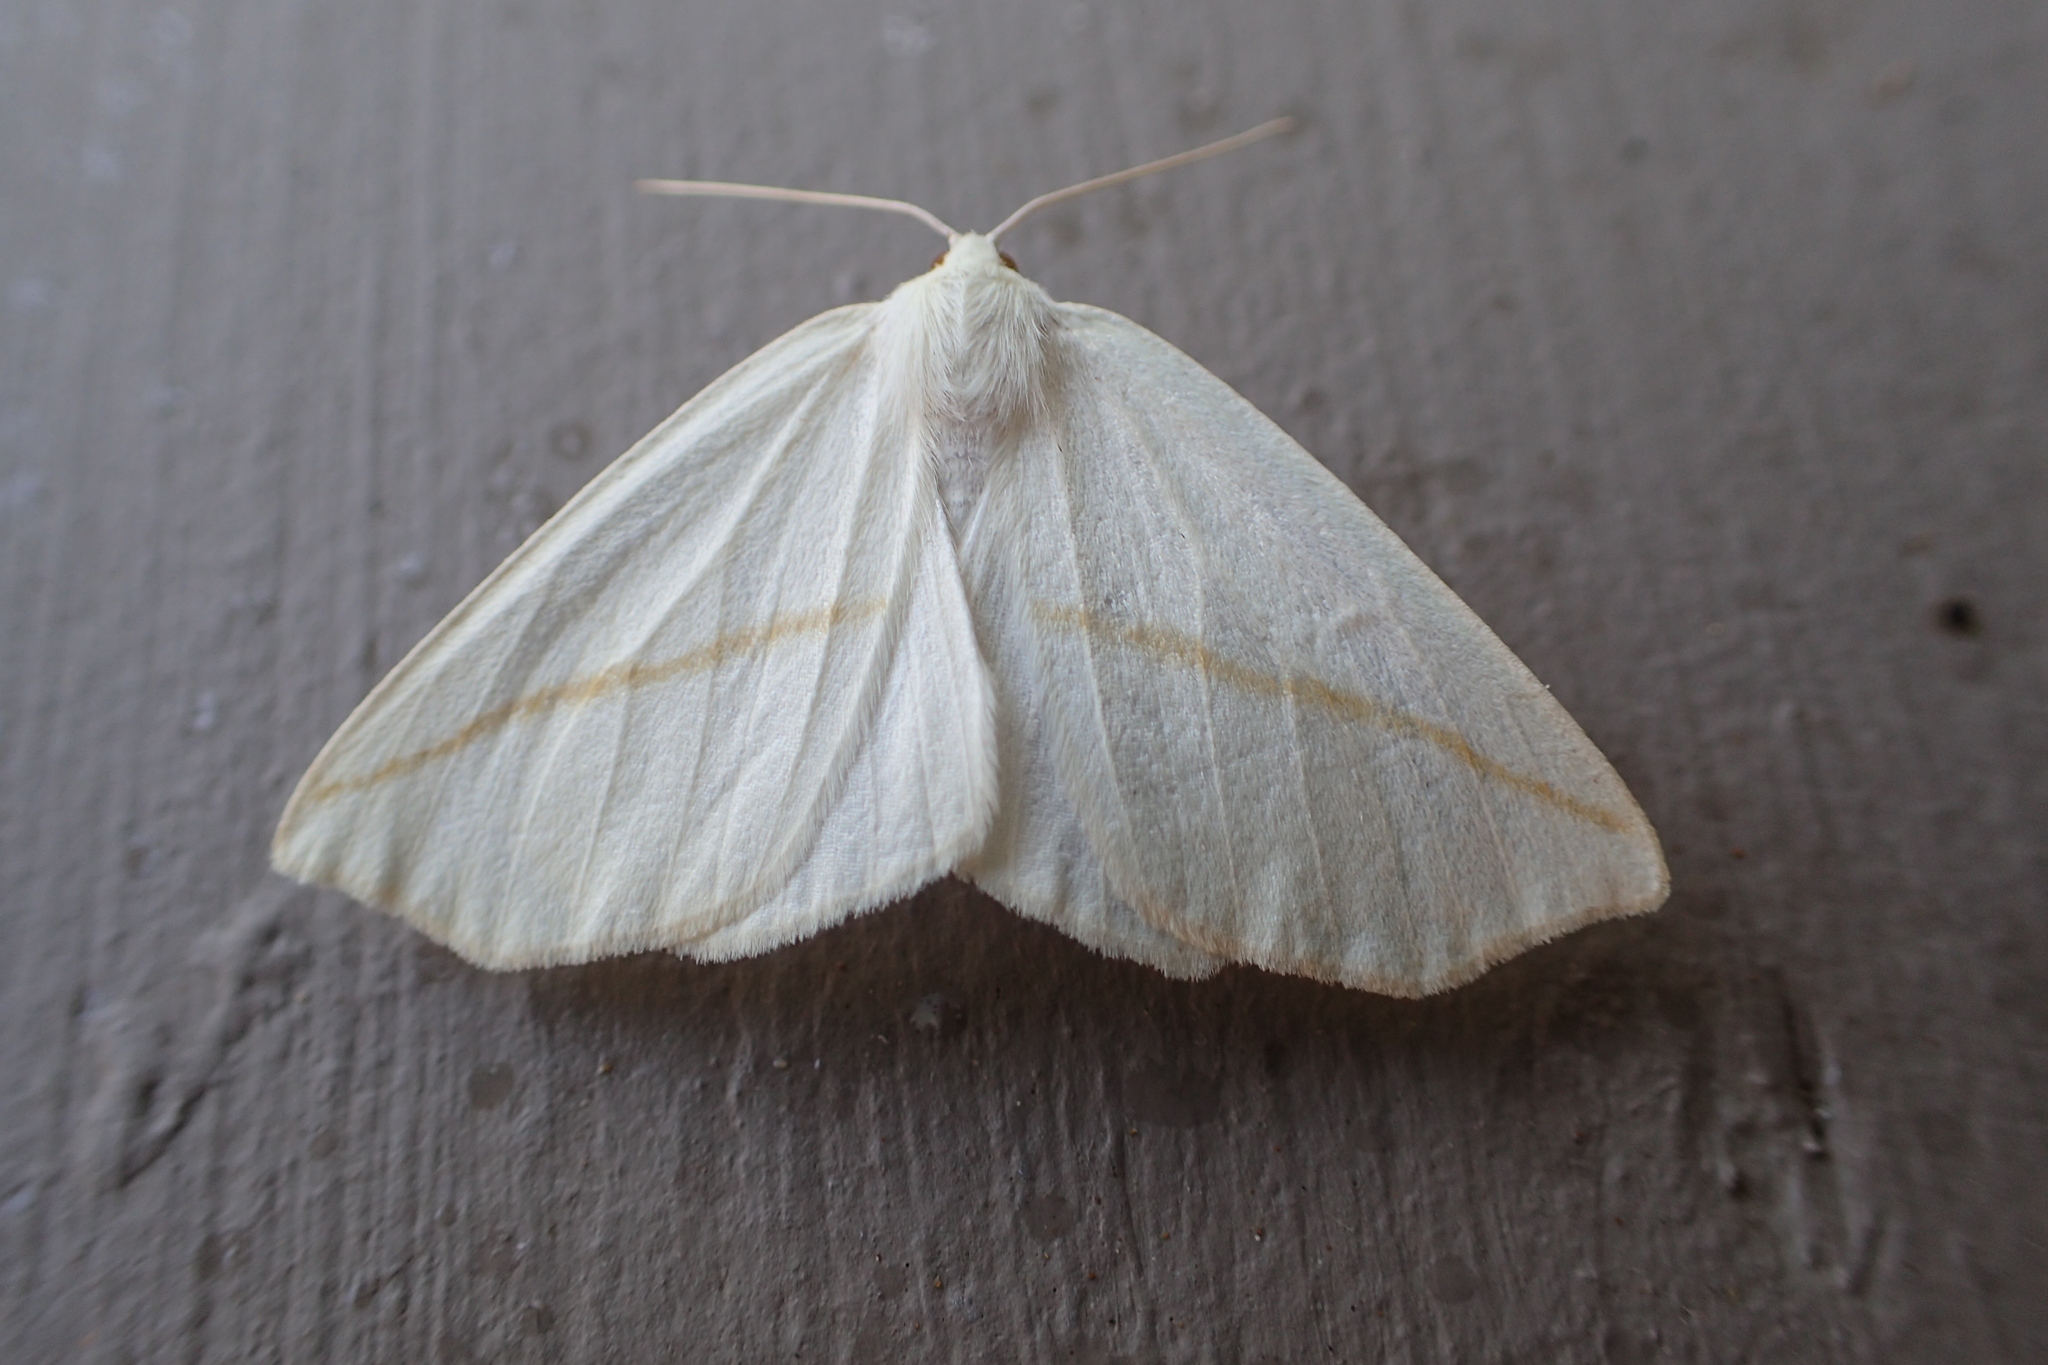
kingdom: Animalia
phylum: Arthropoda
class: Insecta
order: Lepidoptera
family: Geometridae
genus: Tetracis
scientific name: Tetracis cachexiata
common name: White slant-line
